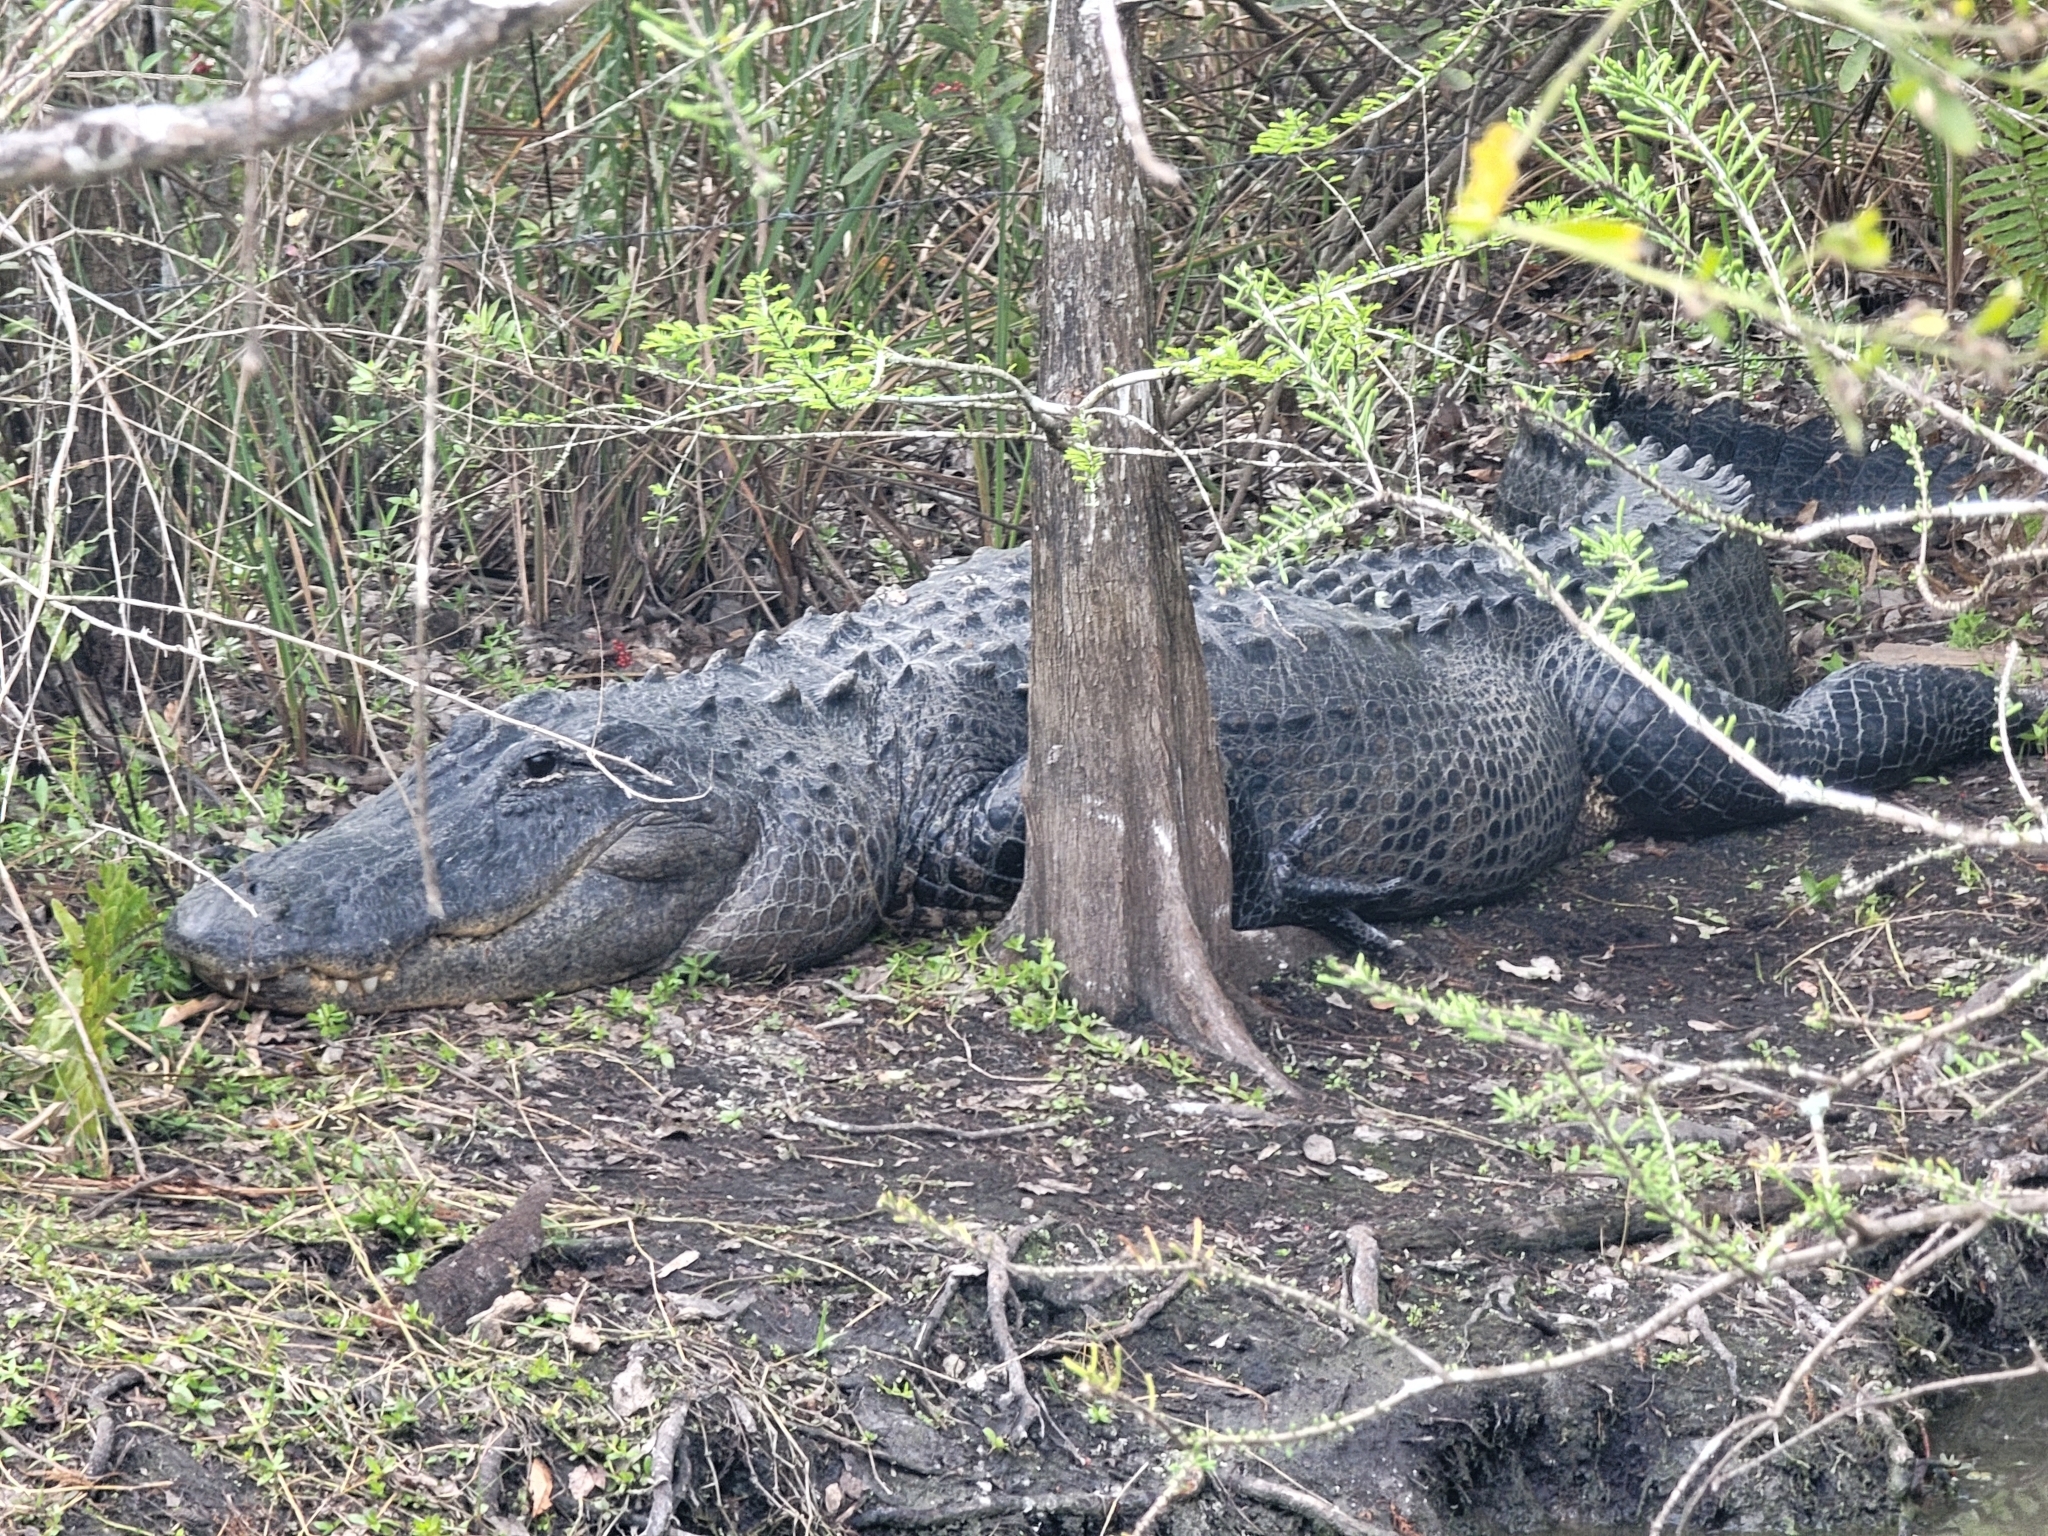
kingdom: Animalia
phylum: Chordata
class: Crocodylia
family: Alligatoridae
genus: Alligator
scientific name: Alligator mississippiensis
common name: American alligator
